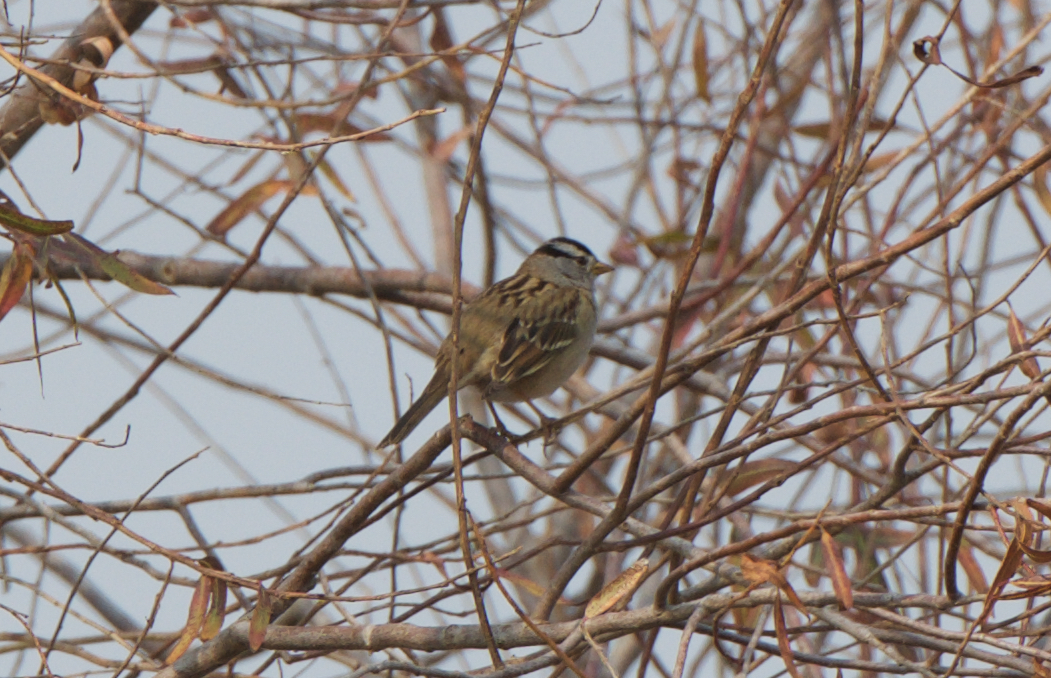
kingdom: Animalia
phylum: Chordata
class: Aves
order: Passeriformes
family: Passerellidae
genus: Zonotrichia
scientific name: Zonotrichia leucophrys
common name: White-crowned sparrow
